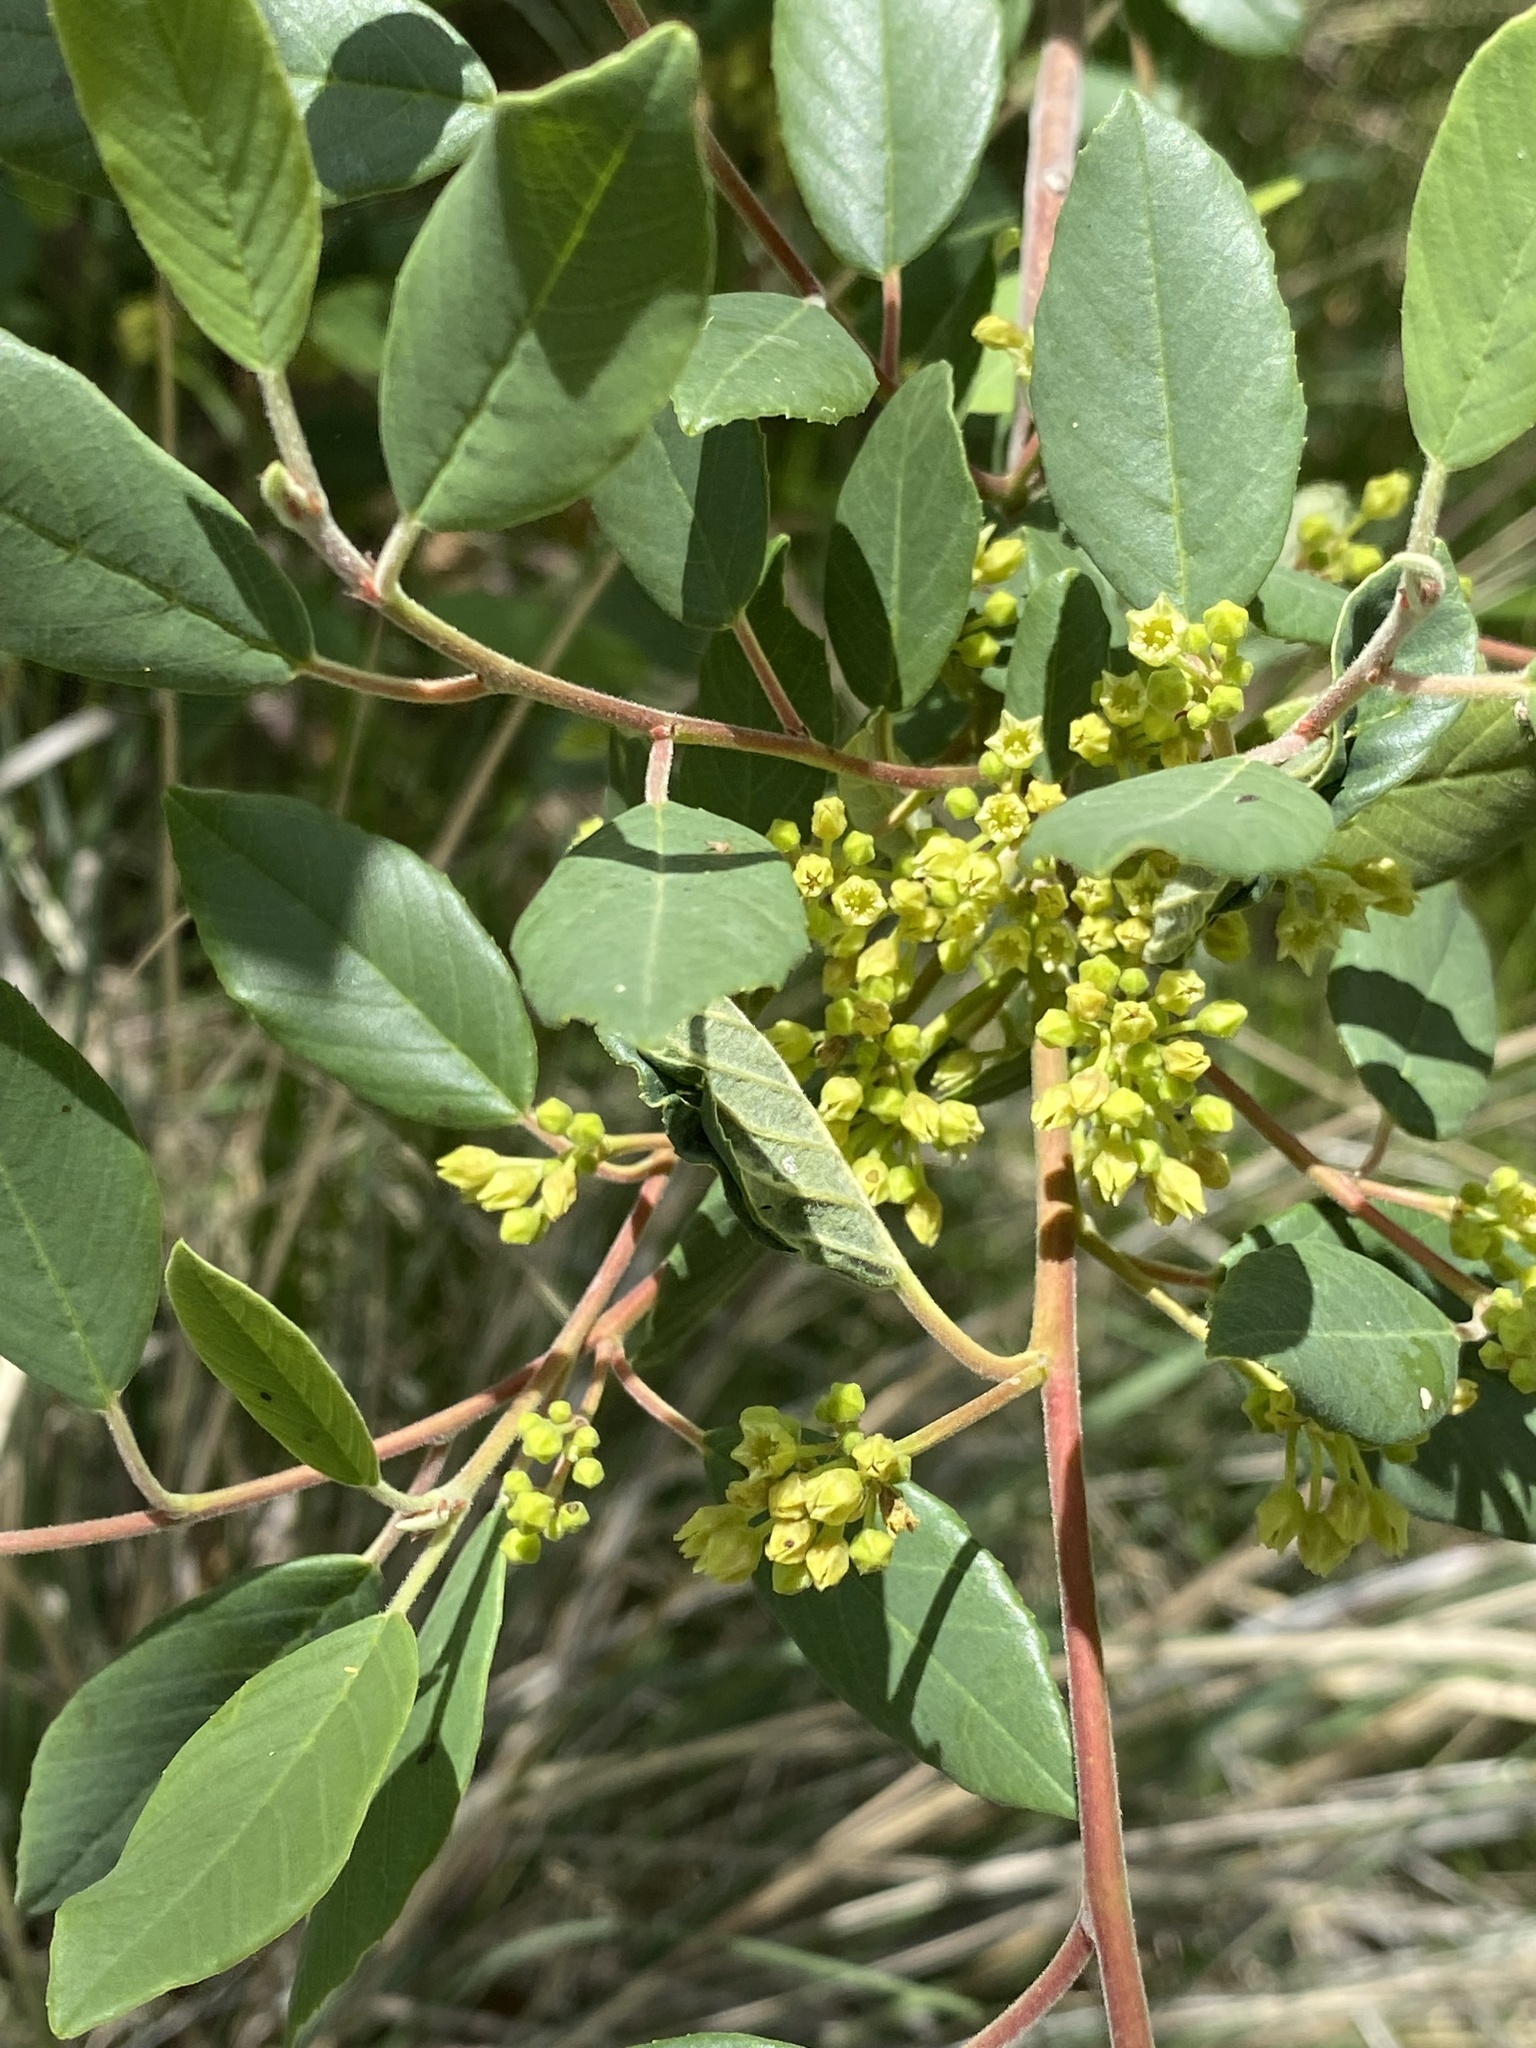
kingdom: Plantae
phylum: Tracheophyta
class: Magnoliopsida
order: Rosales
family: Rhamnaceae
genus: Frangula
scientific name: Frangula californica
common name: California buckthorn
